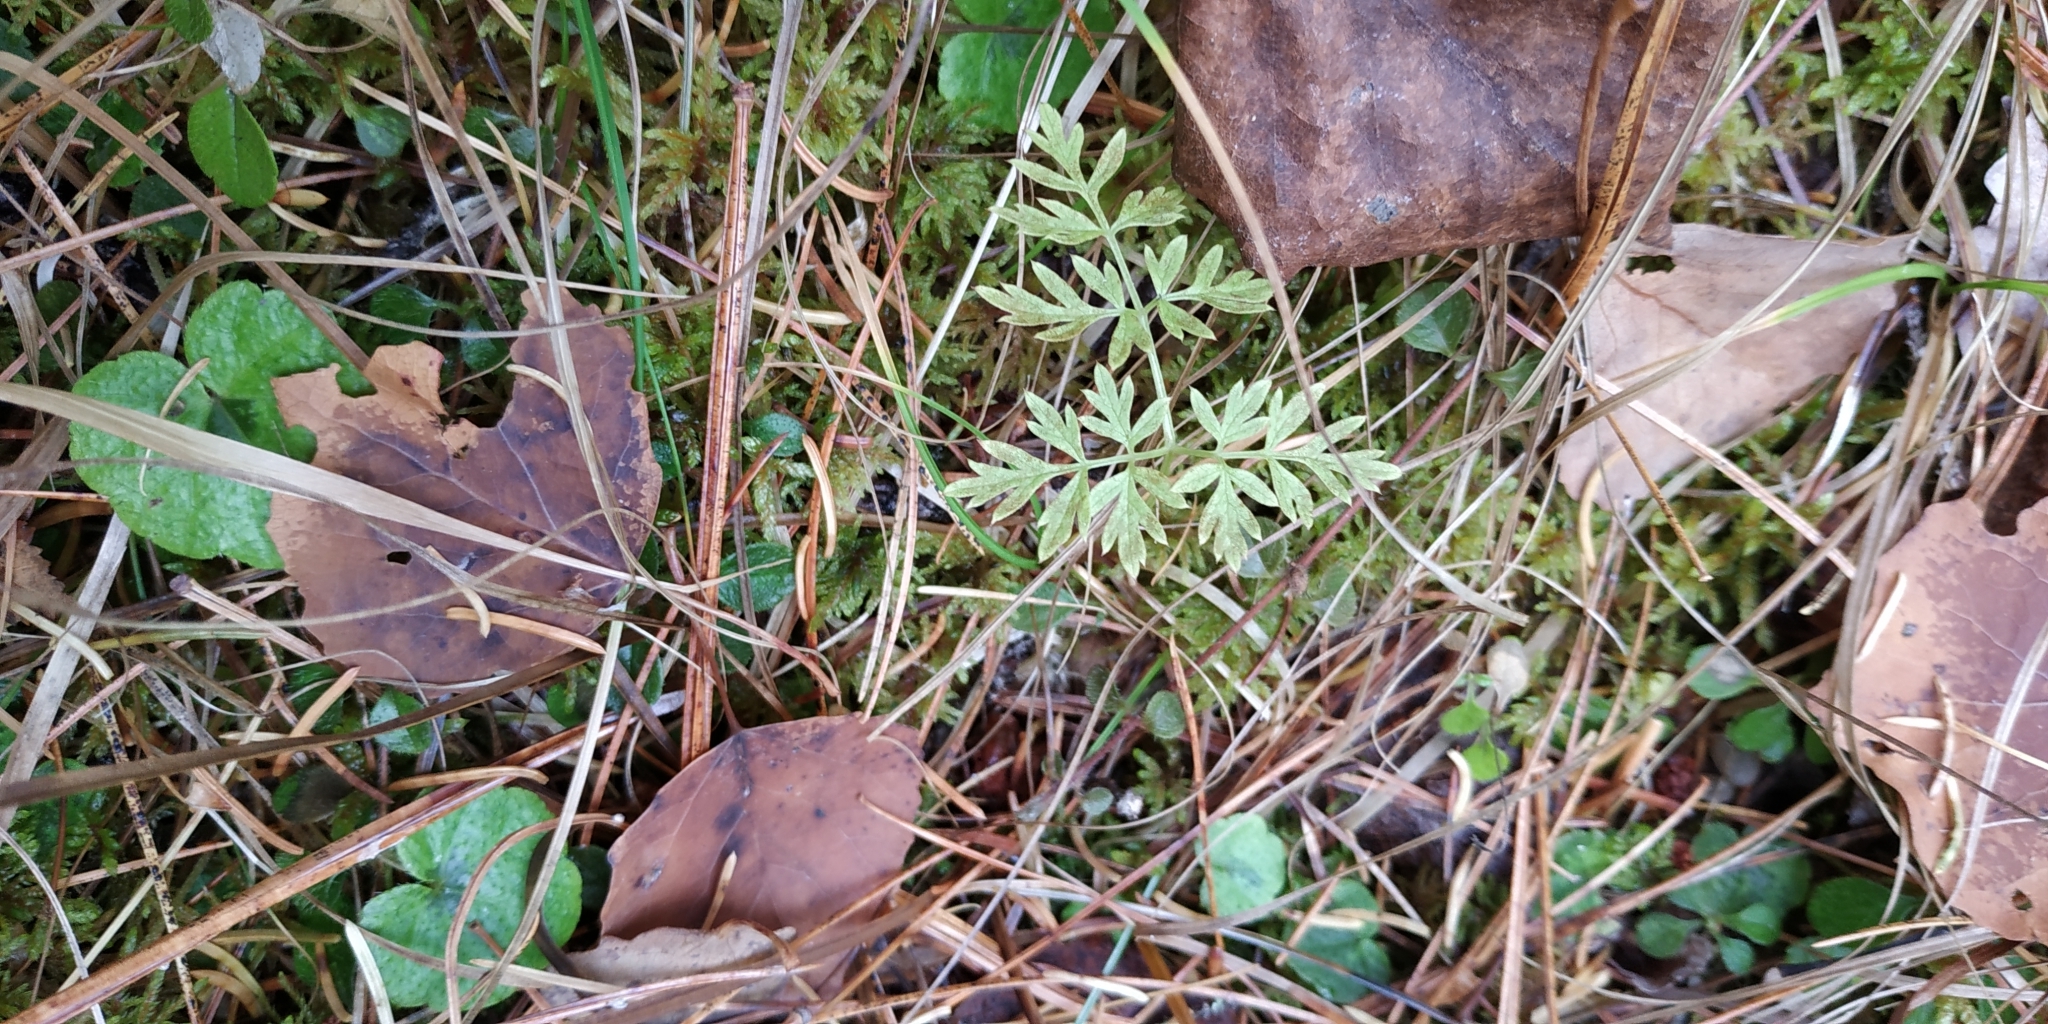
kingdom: Plantae
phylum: Tracheophyta
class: Magnoliopsida
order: Apiales
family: Apiaceae
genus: Aegopodium
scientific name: Aegopodium alpestre
